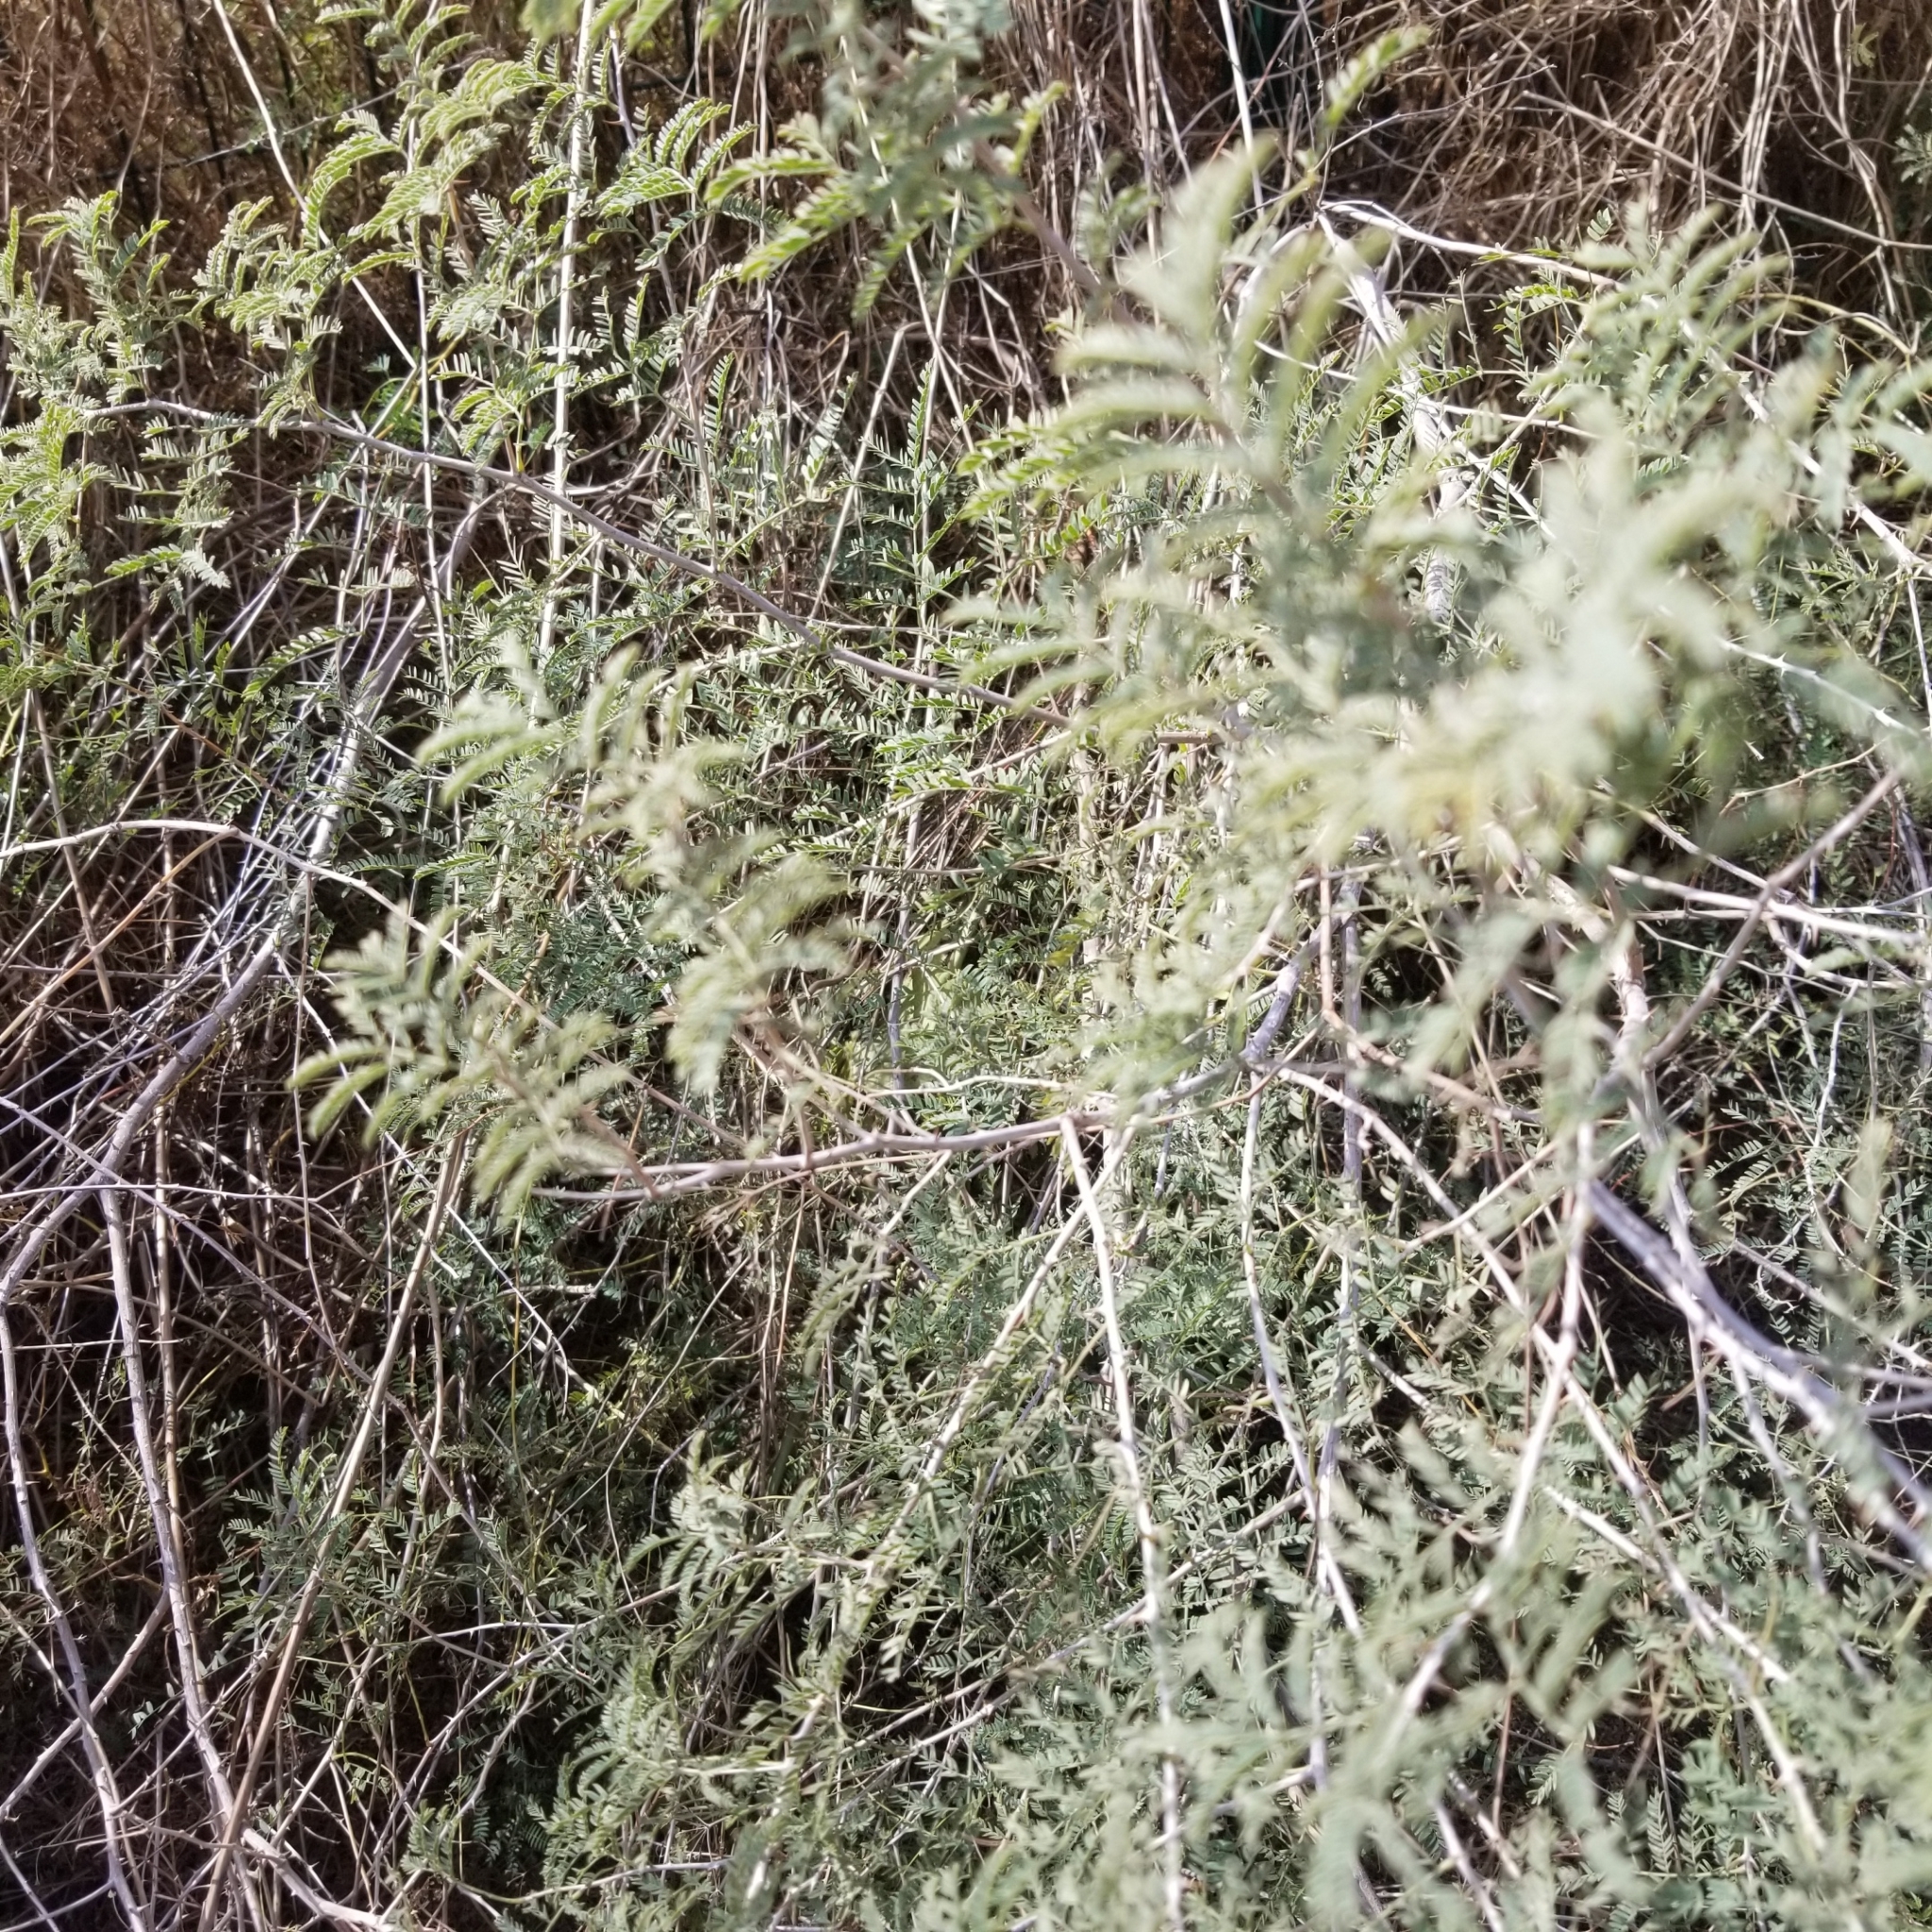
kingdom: Plantae
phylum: Tracheophyta
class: Magnoliopsida
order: Fabales
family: Fabaceae
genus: Vachellia
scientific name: Vachellia farnesiana
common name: Sweet acacia
